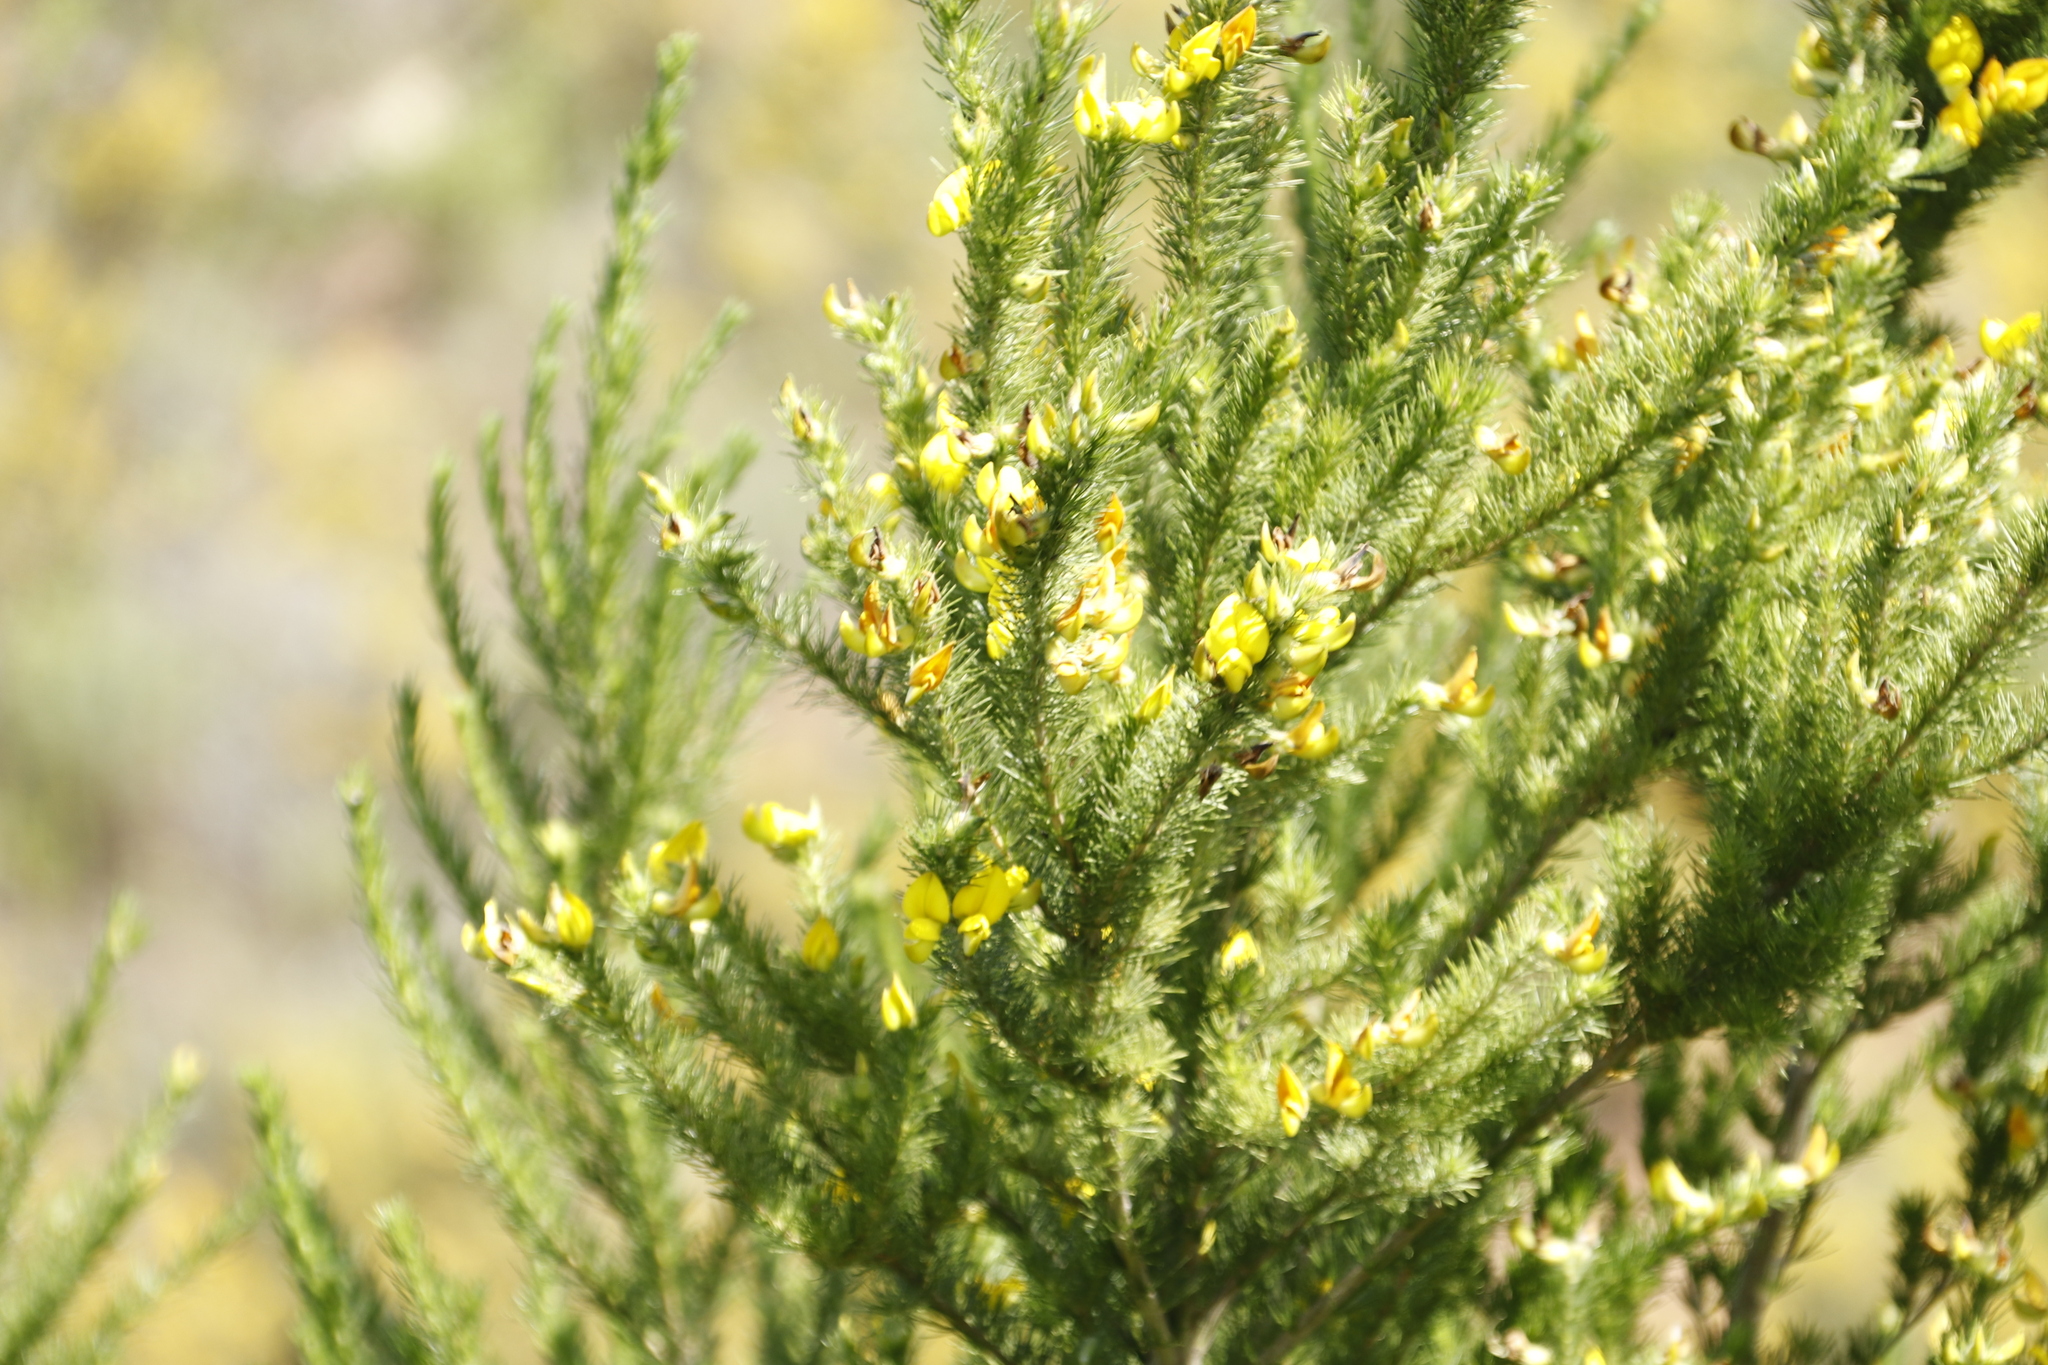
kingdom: Plantae
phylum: Tracheophyta
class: Magnoliopsida
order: Fabales
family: Fabaceae
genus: Aspalathus
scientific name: Aspalathus macrantha
